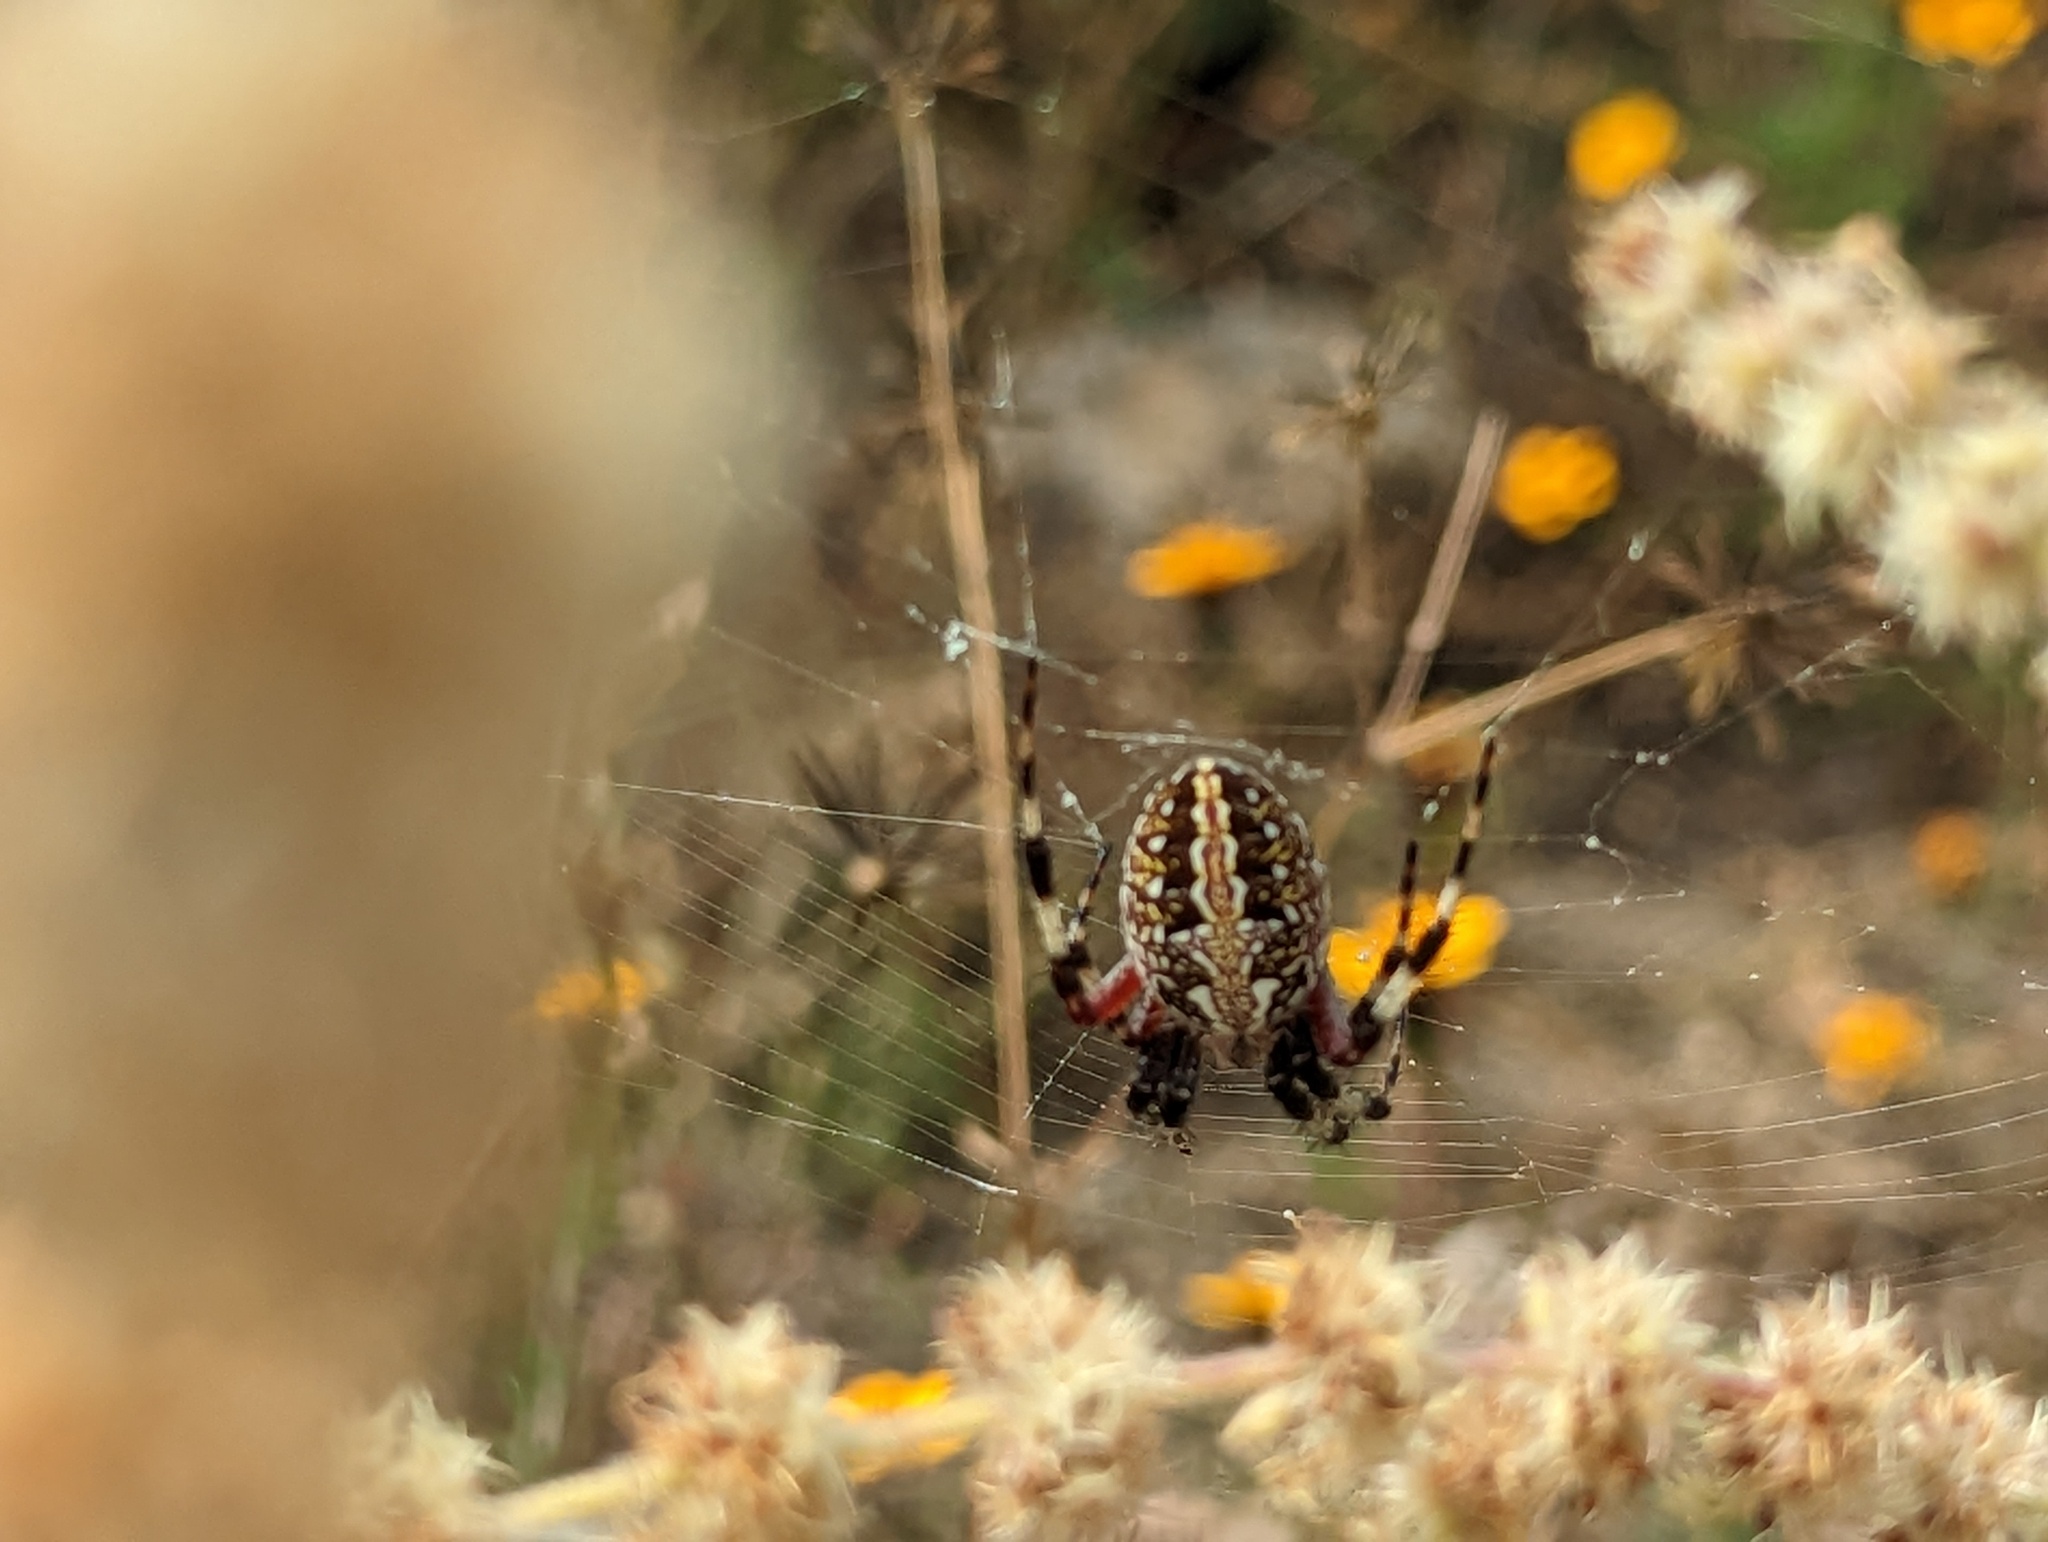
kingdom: Animalia
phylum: Arthropoda
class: Arachnida
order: Araneae
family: Araneidae
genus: Neoscona
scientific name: Neoscona oaxacensis
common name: Orb weavers
